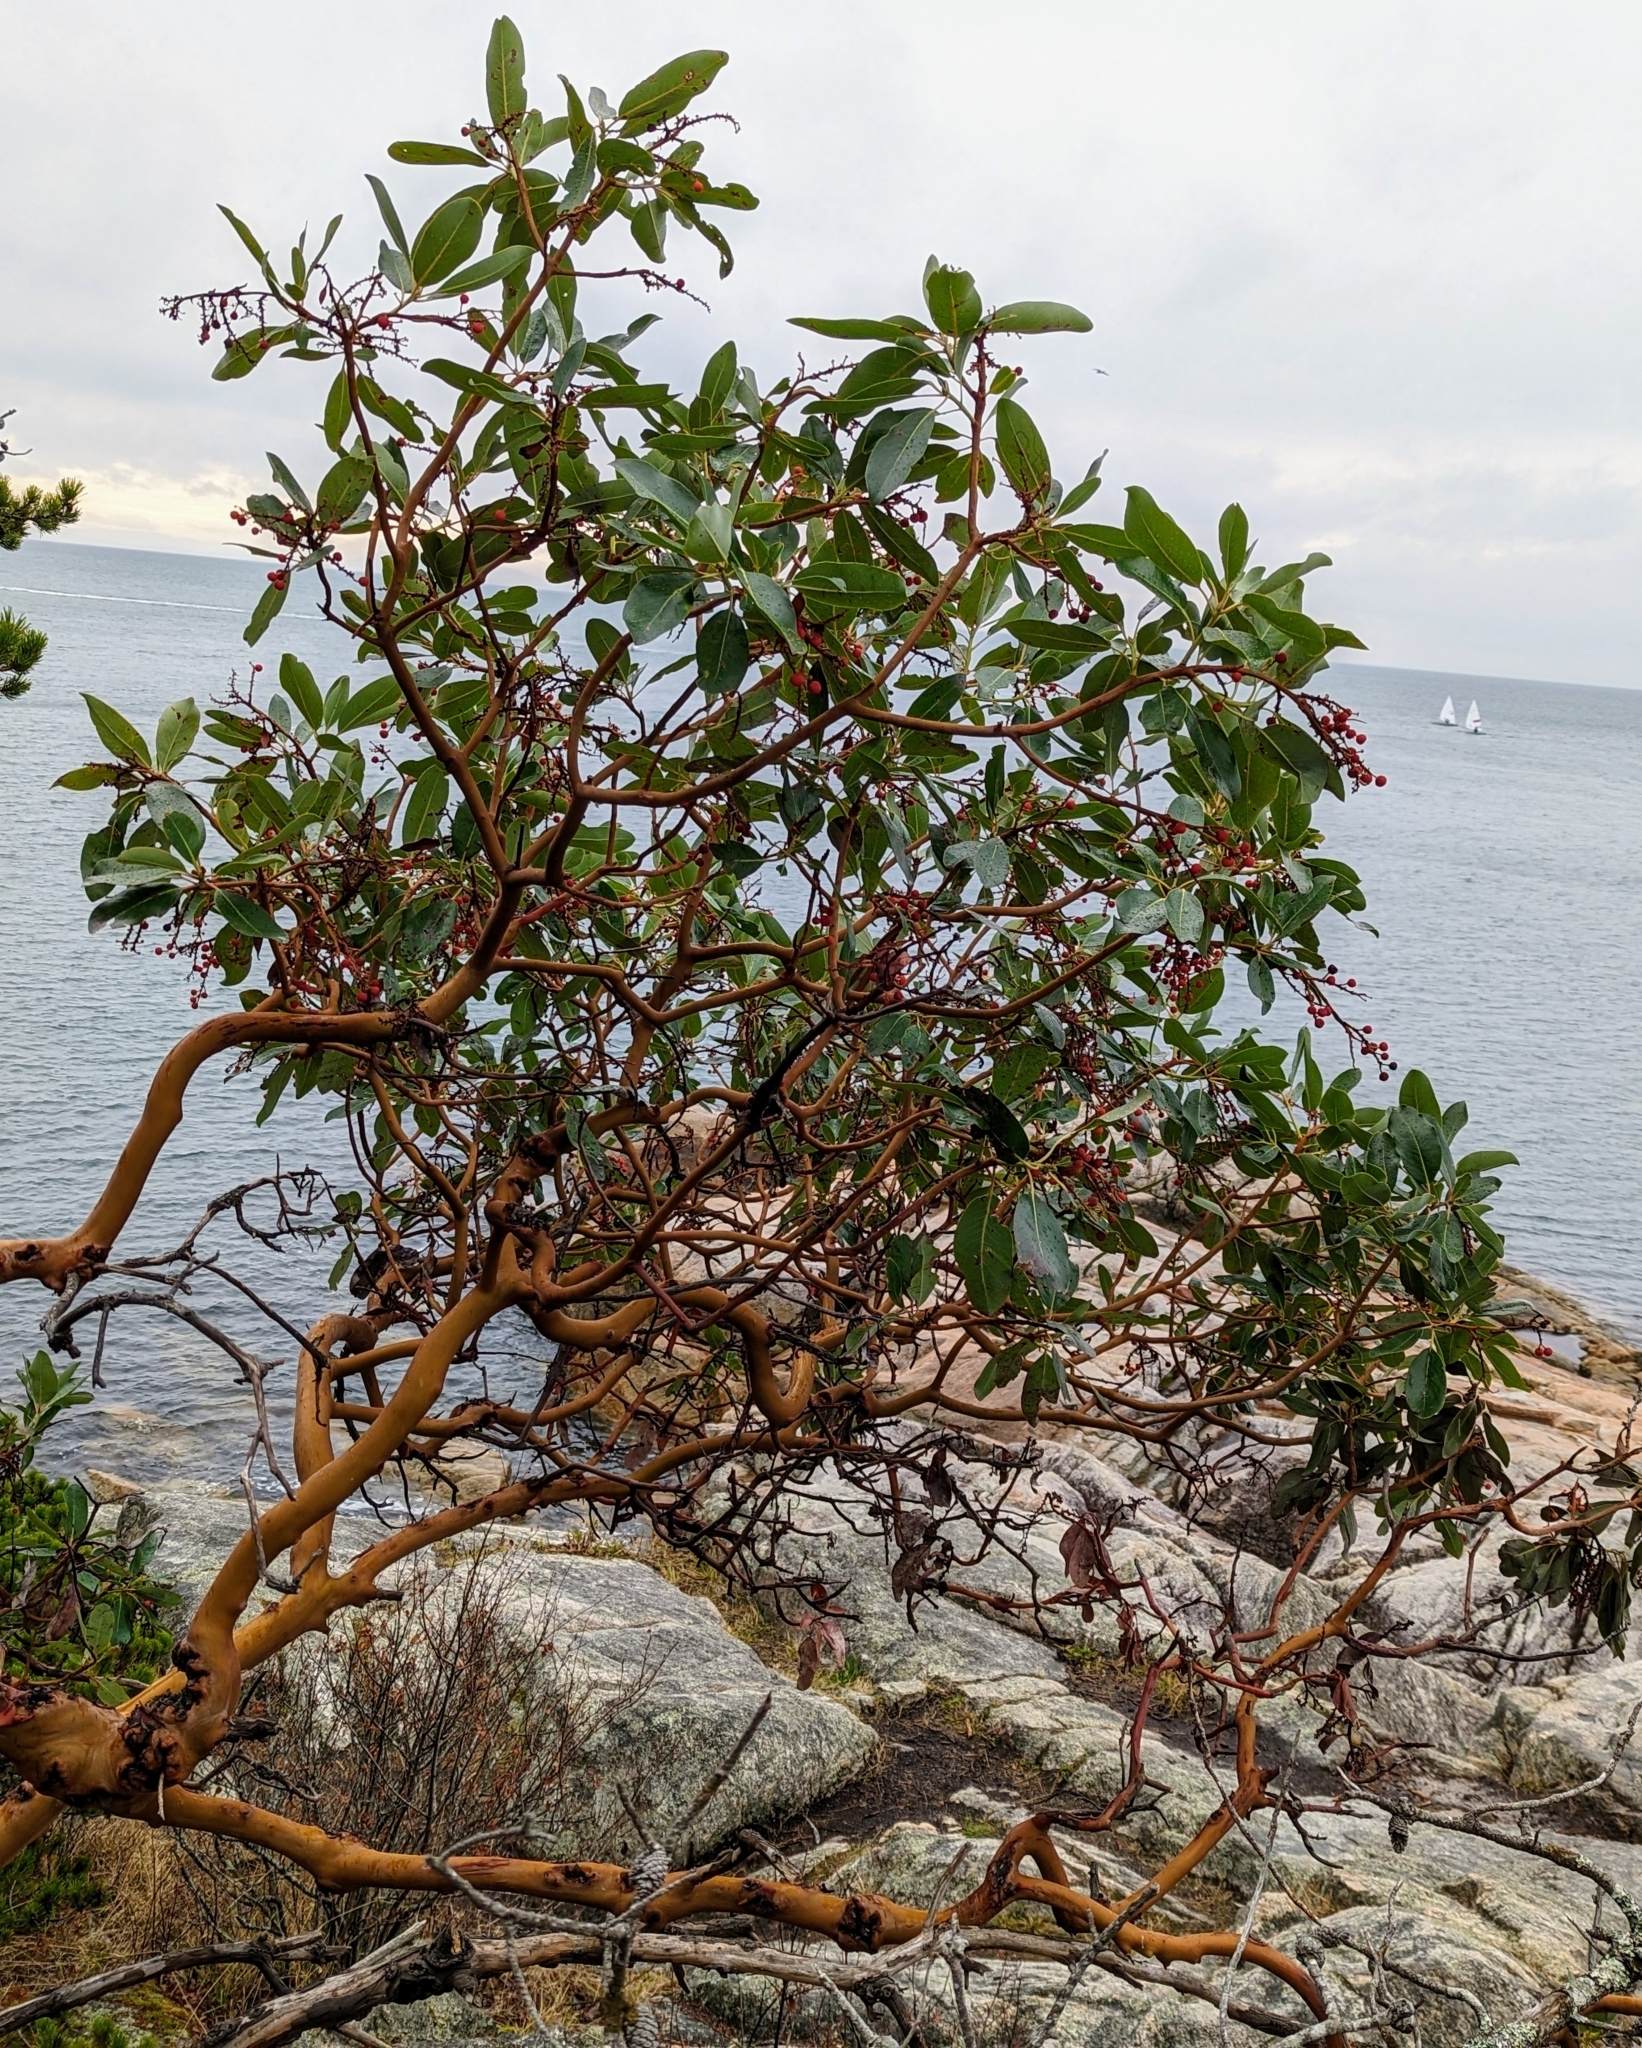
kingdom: Plantae
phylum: Tracheophyta
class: Magnoliopsida
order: Ericales
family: Ericaceae
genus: Arbutus
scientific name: Arbutus menziesii
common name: Pacific madrone
